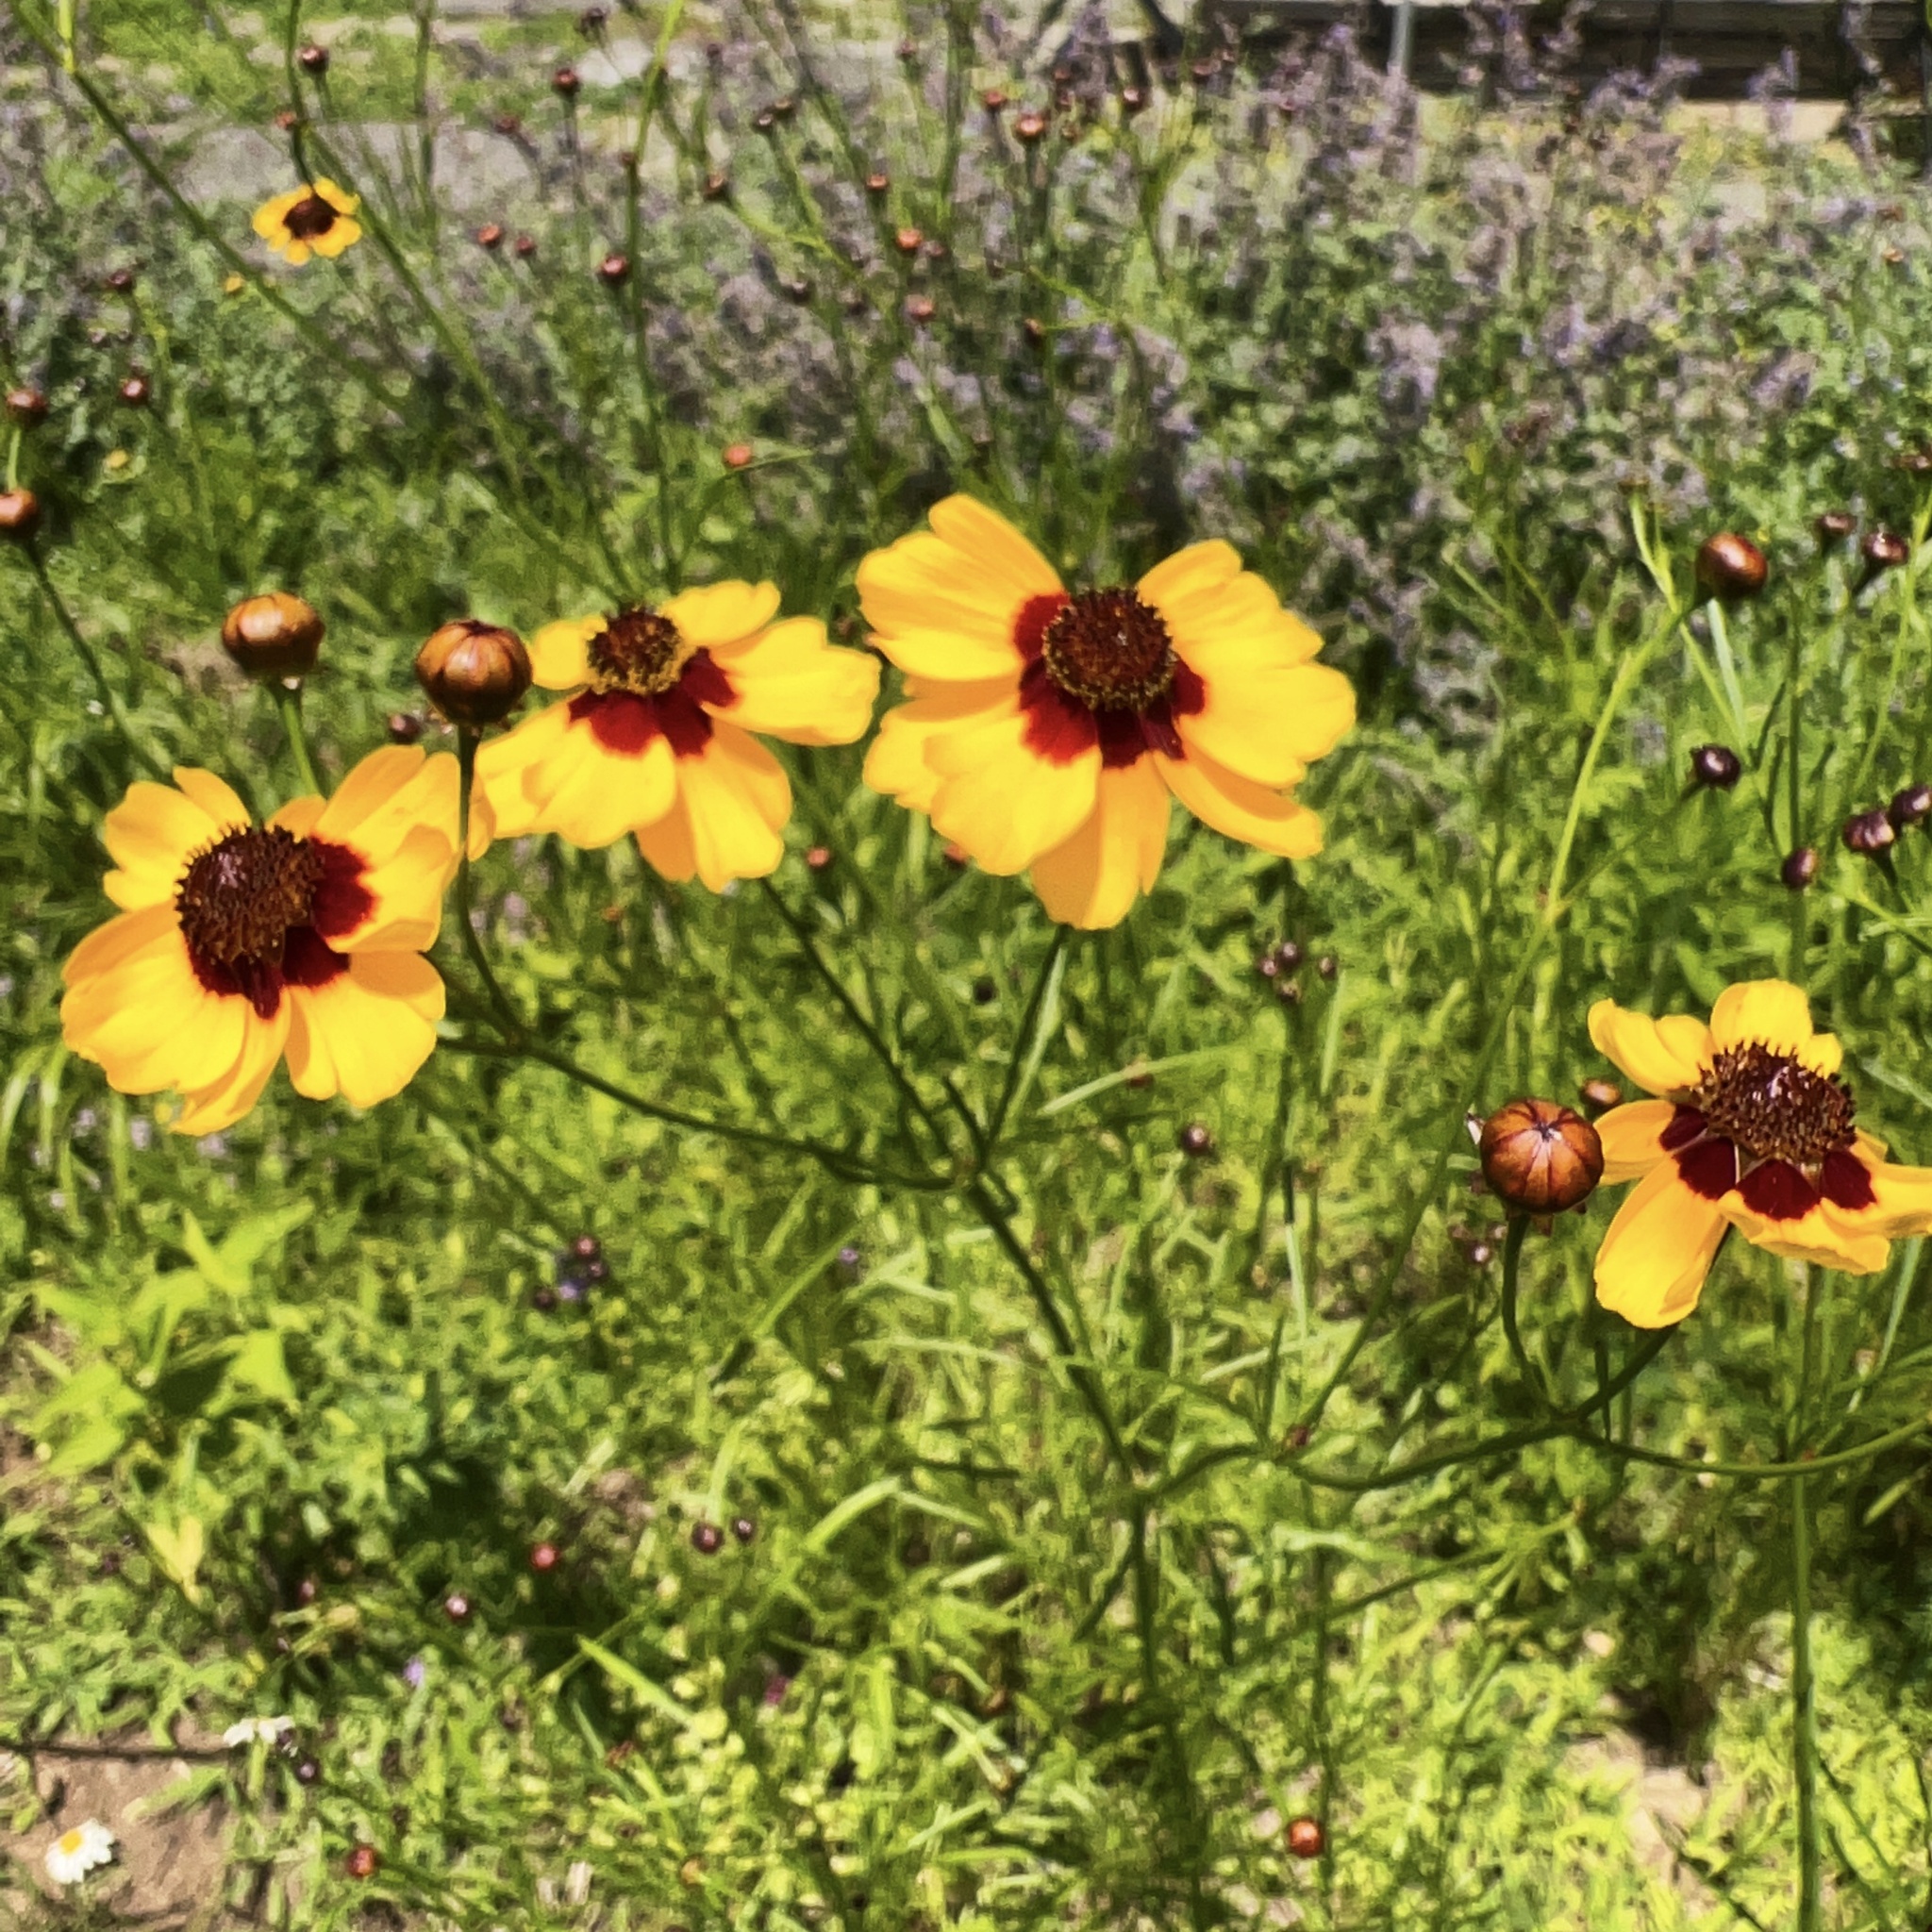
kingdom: Plantae
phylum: Tracheophyta
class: Magnoliopsida
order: Asterales
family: Asteraceae
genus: Coreopsis
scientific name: Coreopsis tinctoria
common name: Garden tickseed
